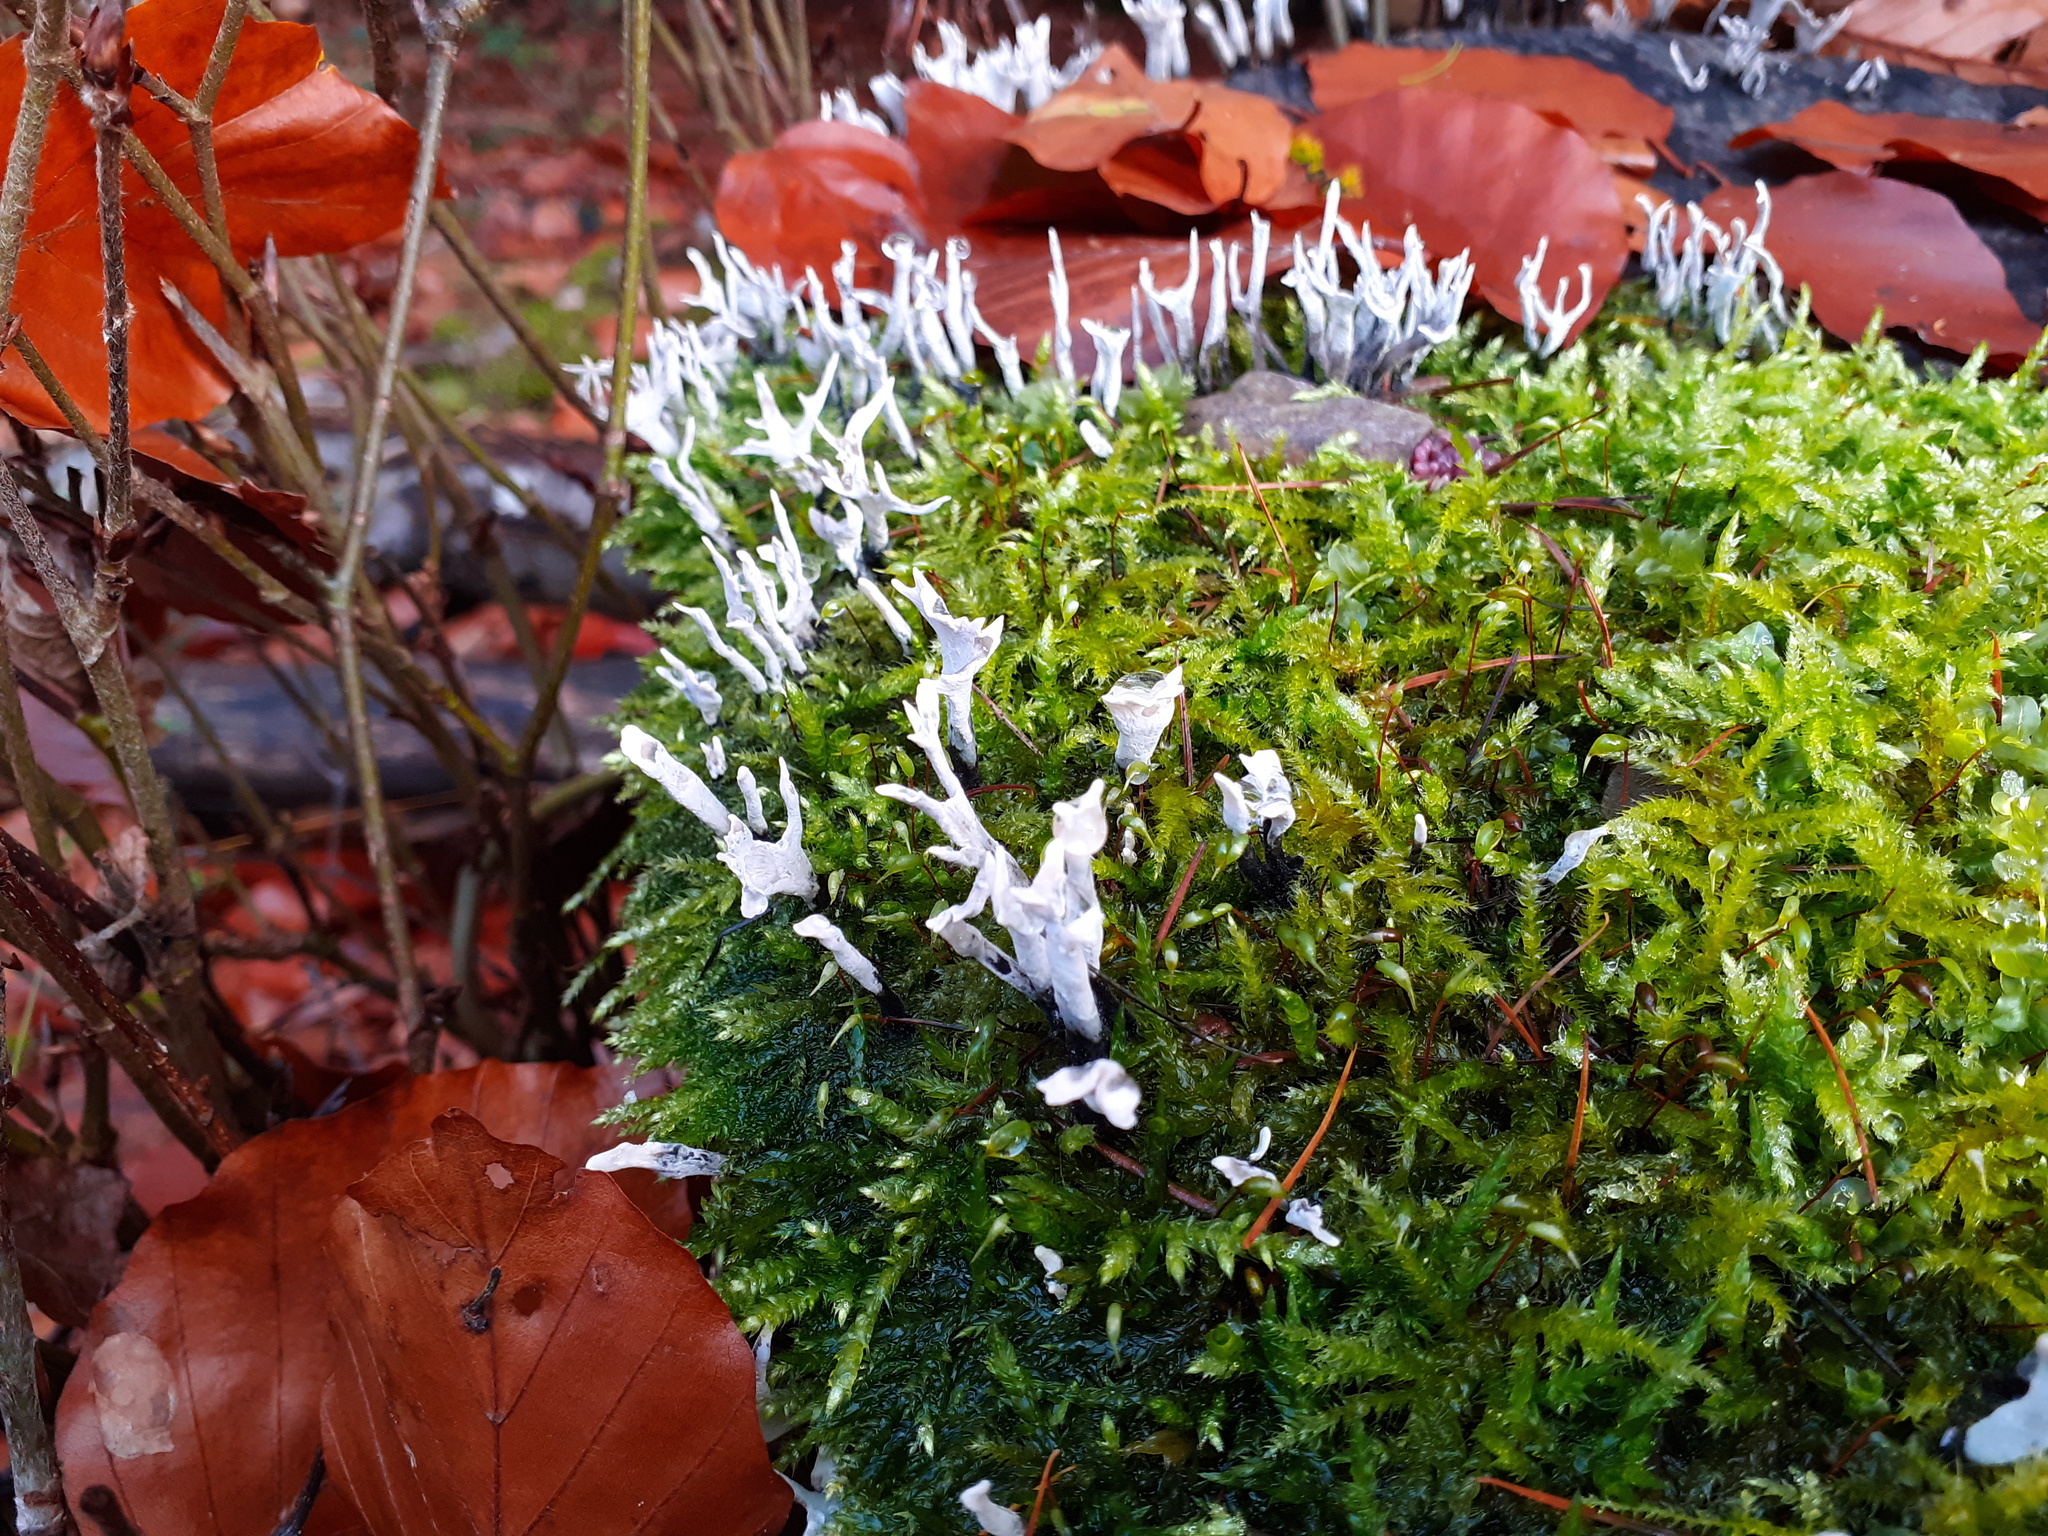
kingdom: Fungi
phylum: Ascomycota
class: Sordariomycetes
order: Xylariales
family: Xylariaceae
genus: Xylaria
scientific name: Xylaria hypoxylon
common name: Candle-snuff fungus
